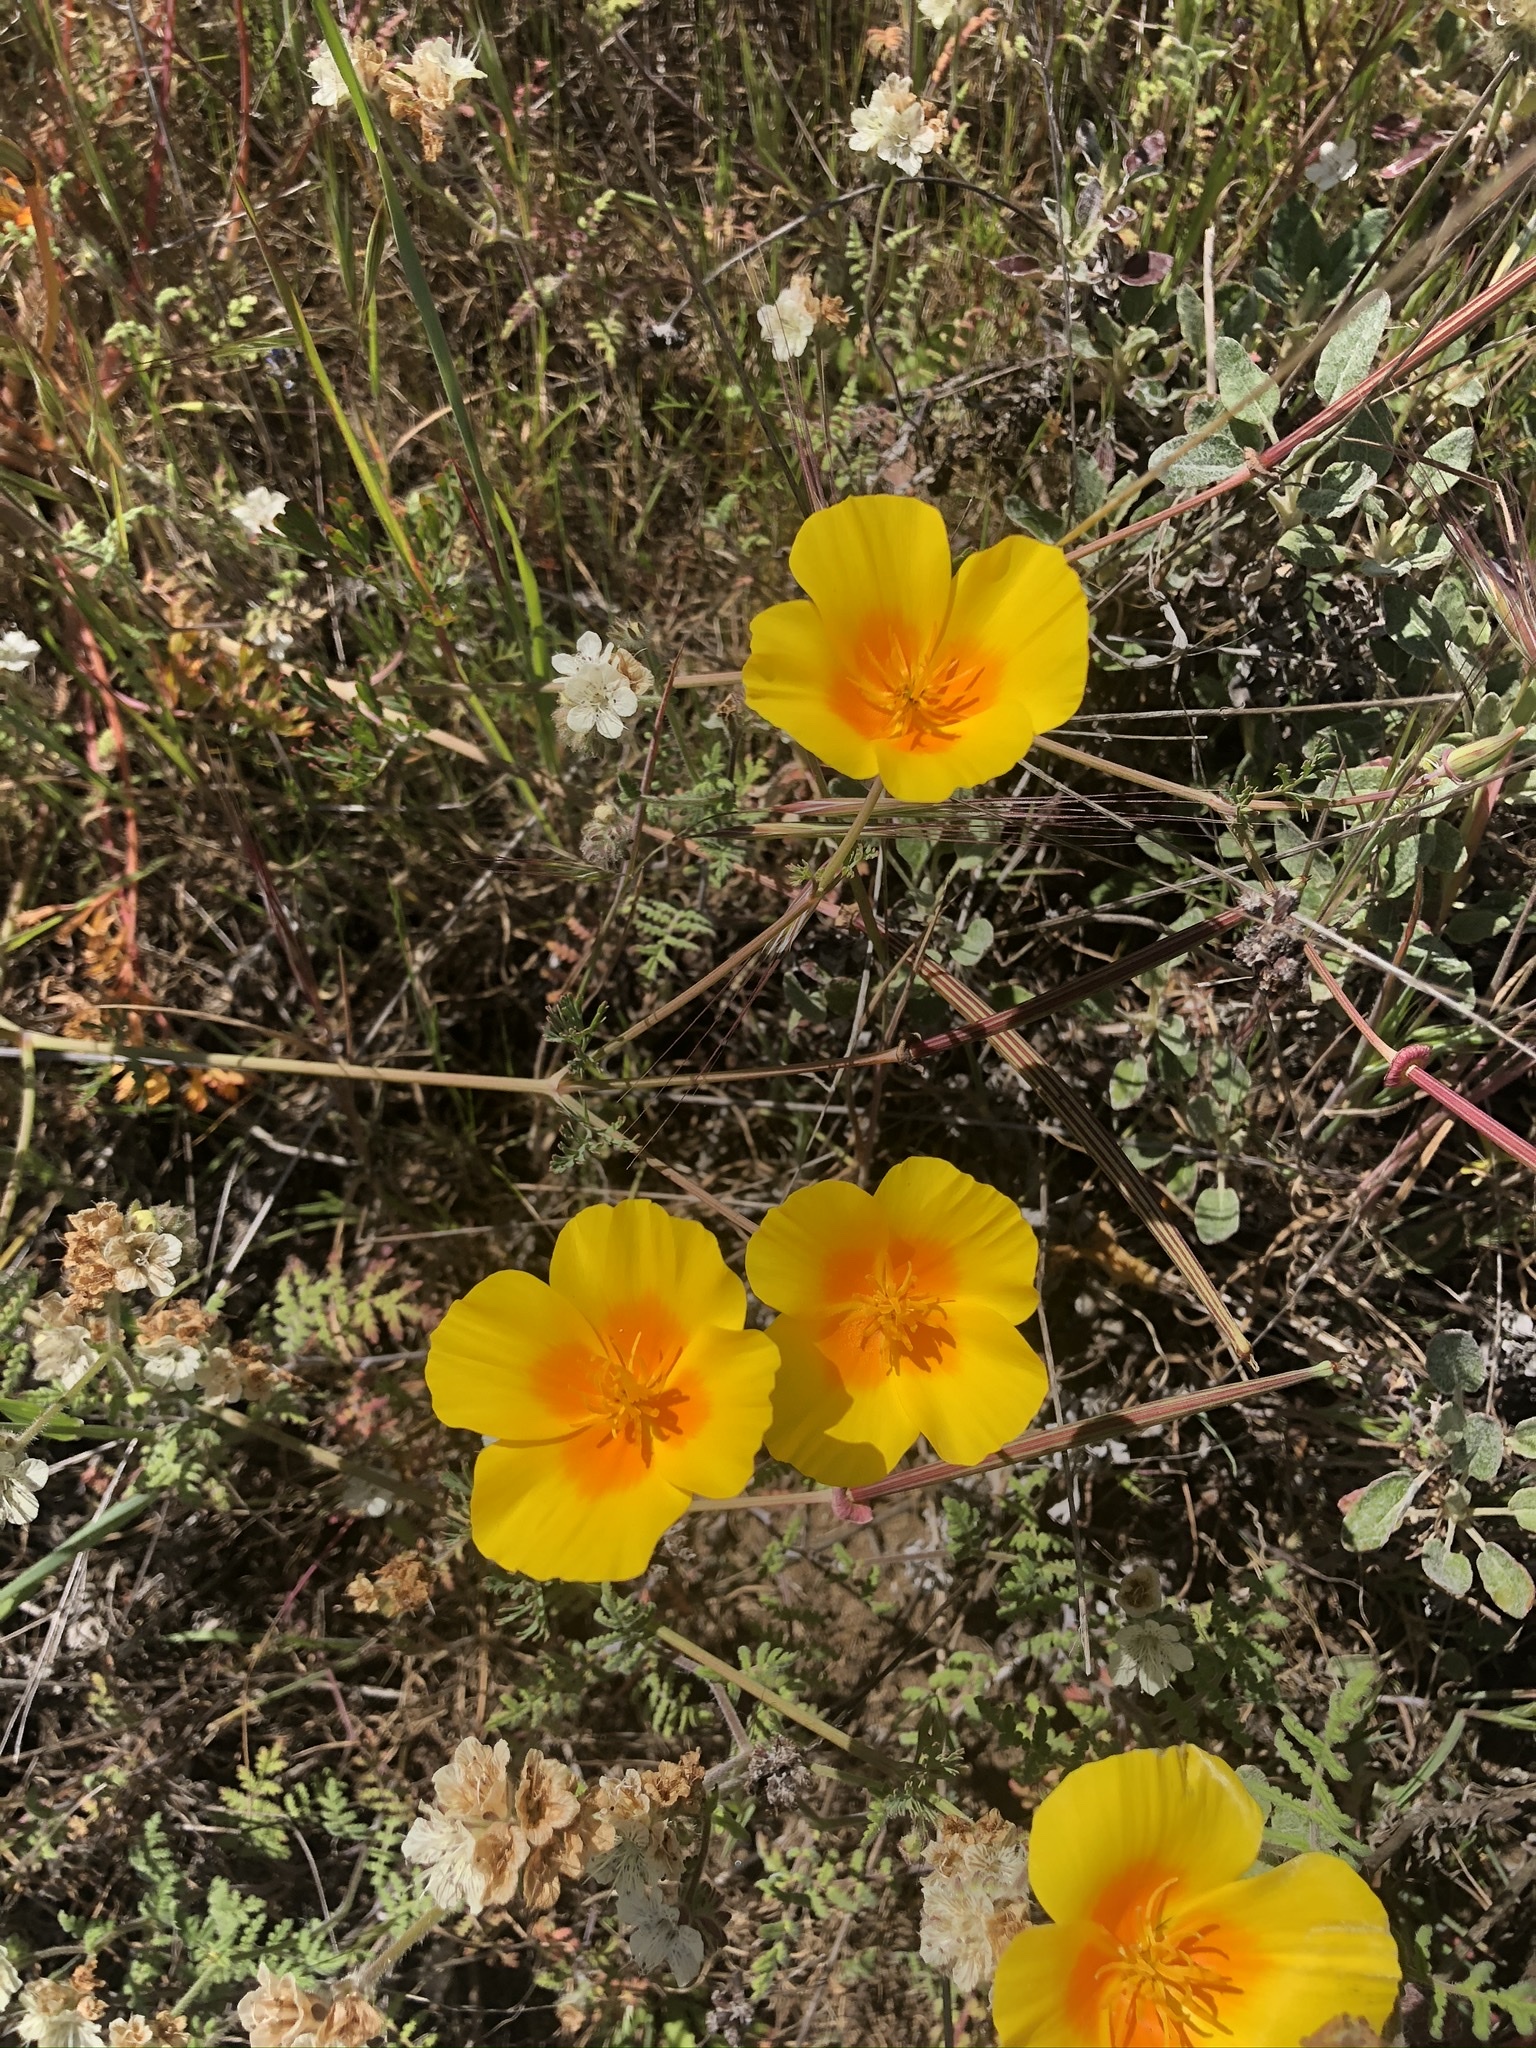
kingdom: Plantae
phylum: Tracheophyta
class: Magnoliopsida
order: Ranunculales
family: Papaveraceae
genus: Eschscholzia
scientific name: Eschscholzia californica
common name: California poppy
